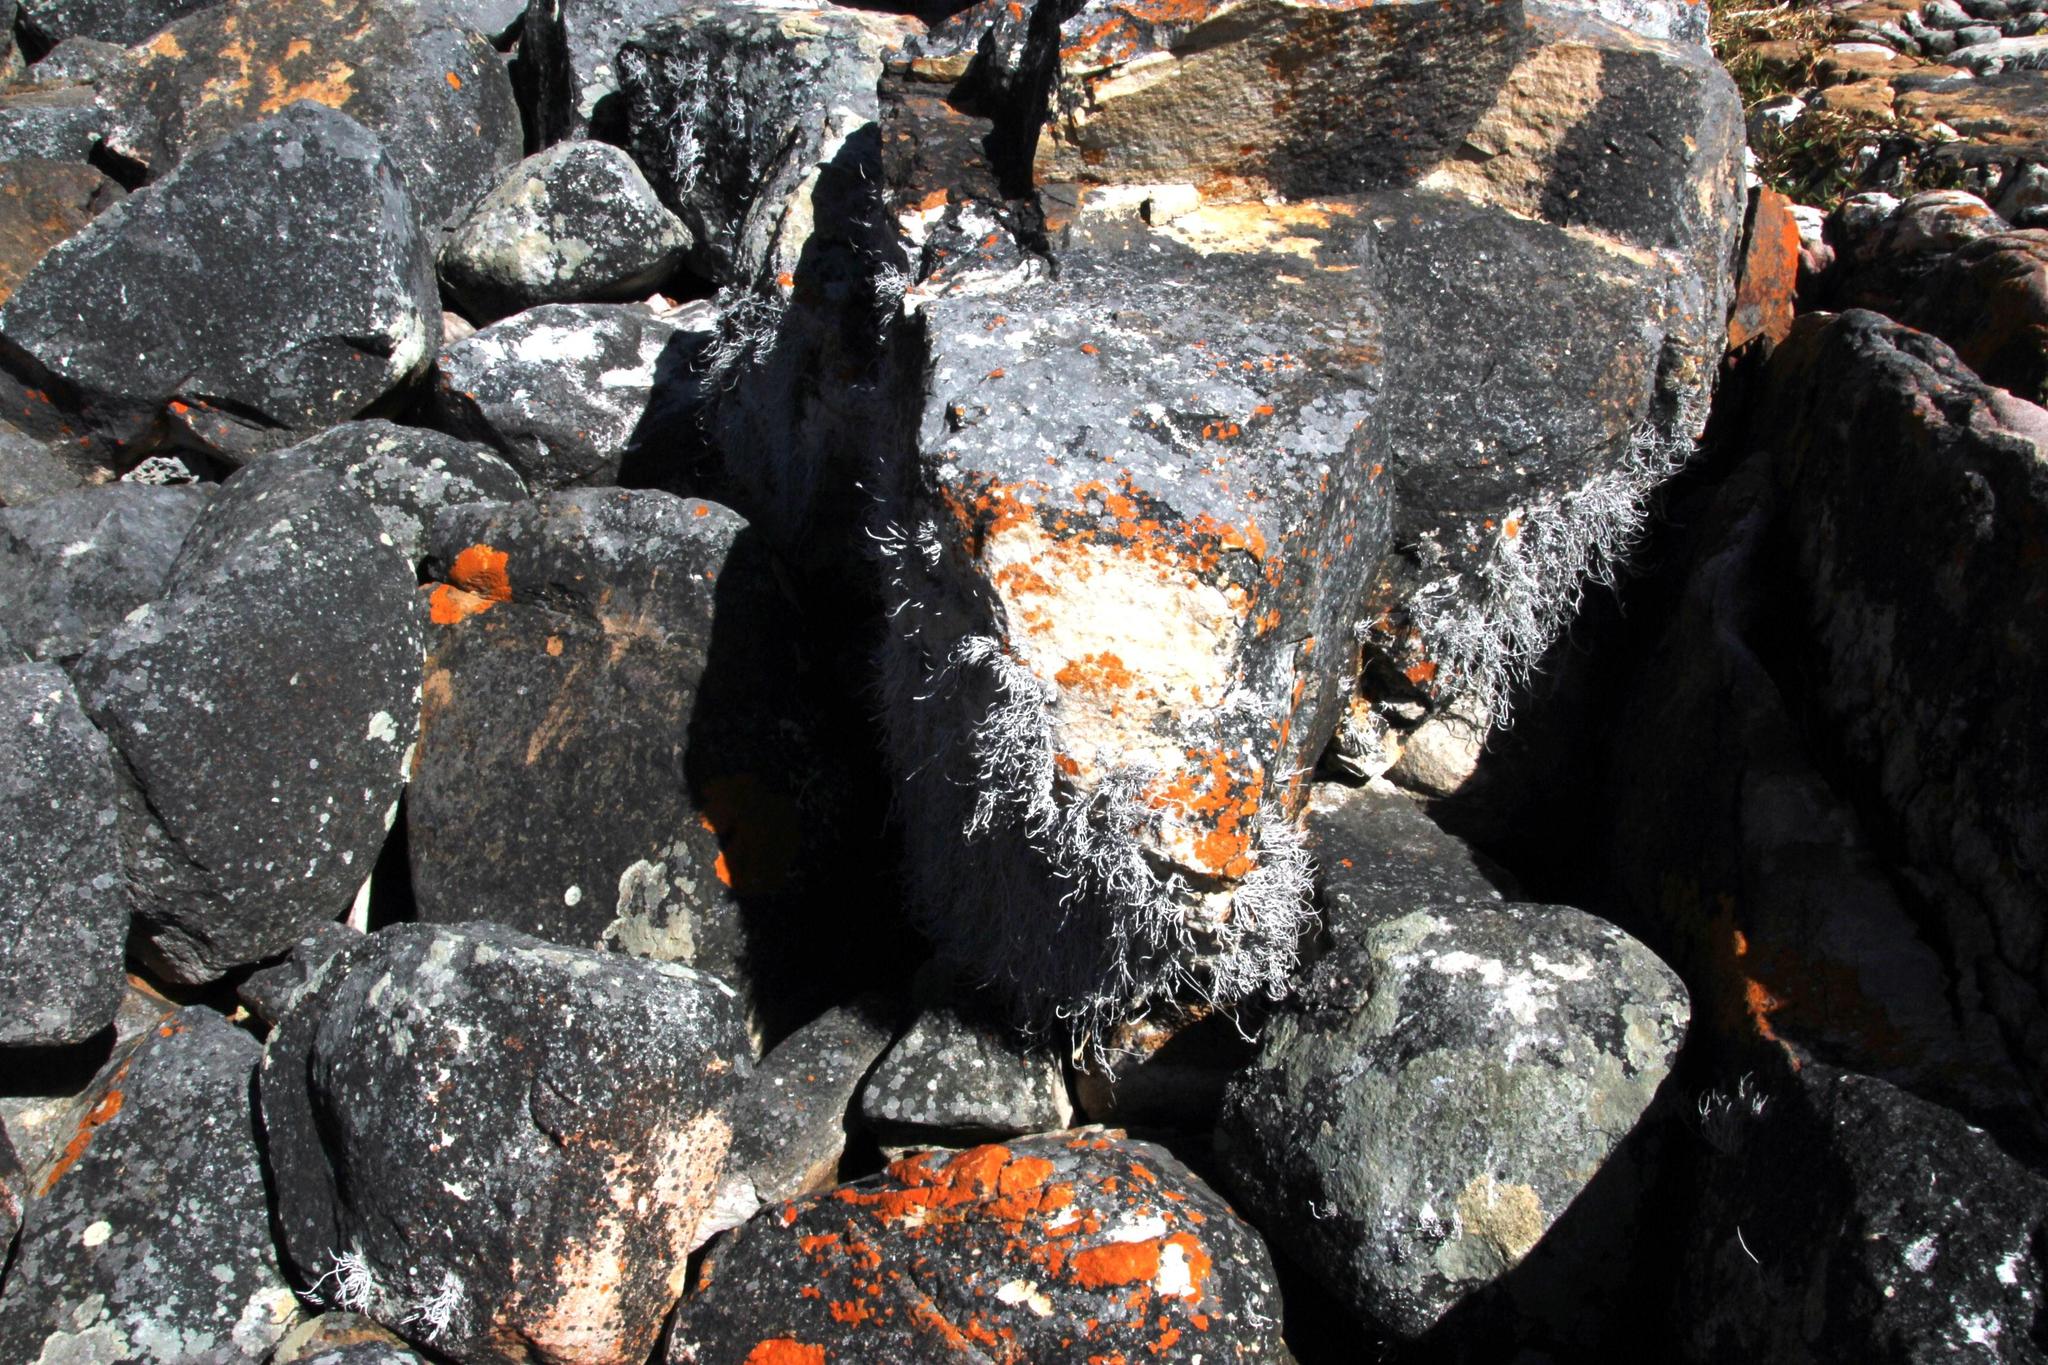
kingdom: Fungi
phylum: Ascomycota
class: Arthoniomycetes
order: Arthoniales
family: Roccellaceae
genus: Roccellina
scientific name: Roccellina hypomecha
